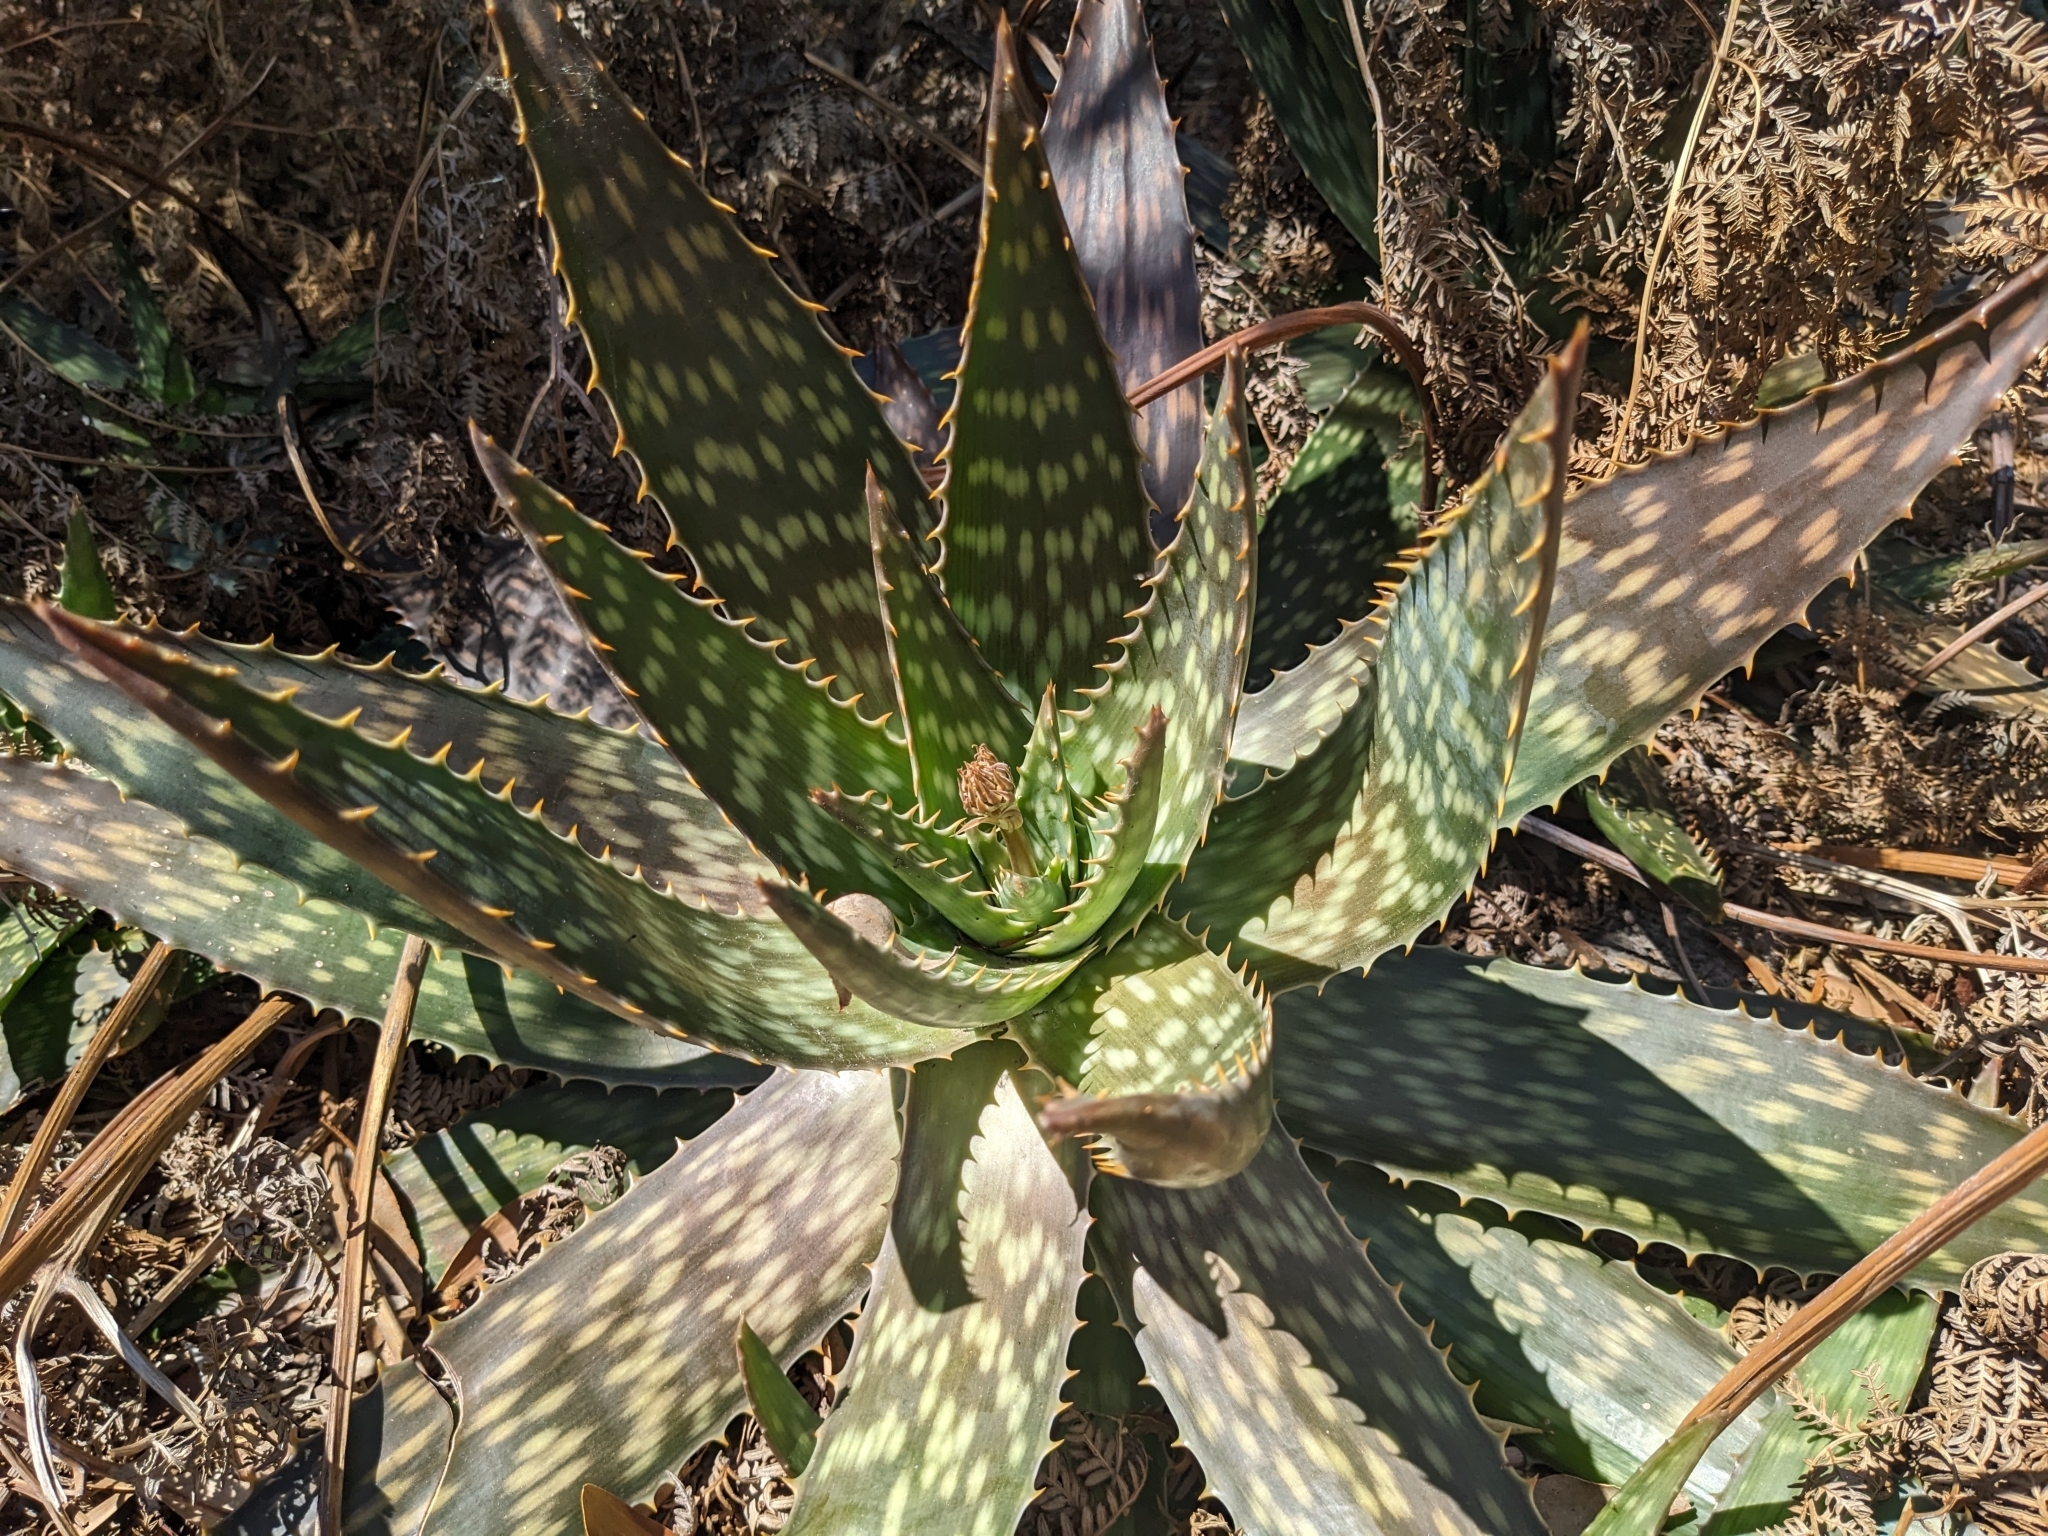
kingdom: Plantae
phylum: Tracheophyta
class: Liliopsida
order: Asparagales
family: Asphodelaceae
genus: Aloe
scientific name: Aloe maculata
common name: Broadleaf aloe
